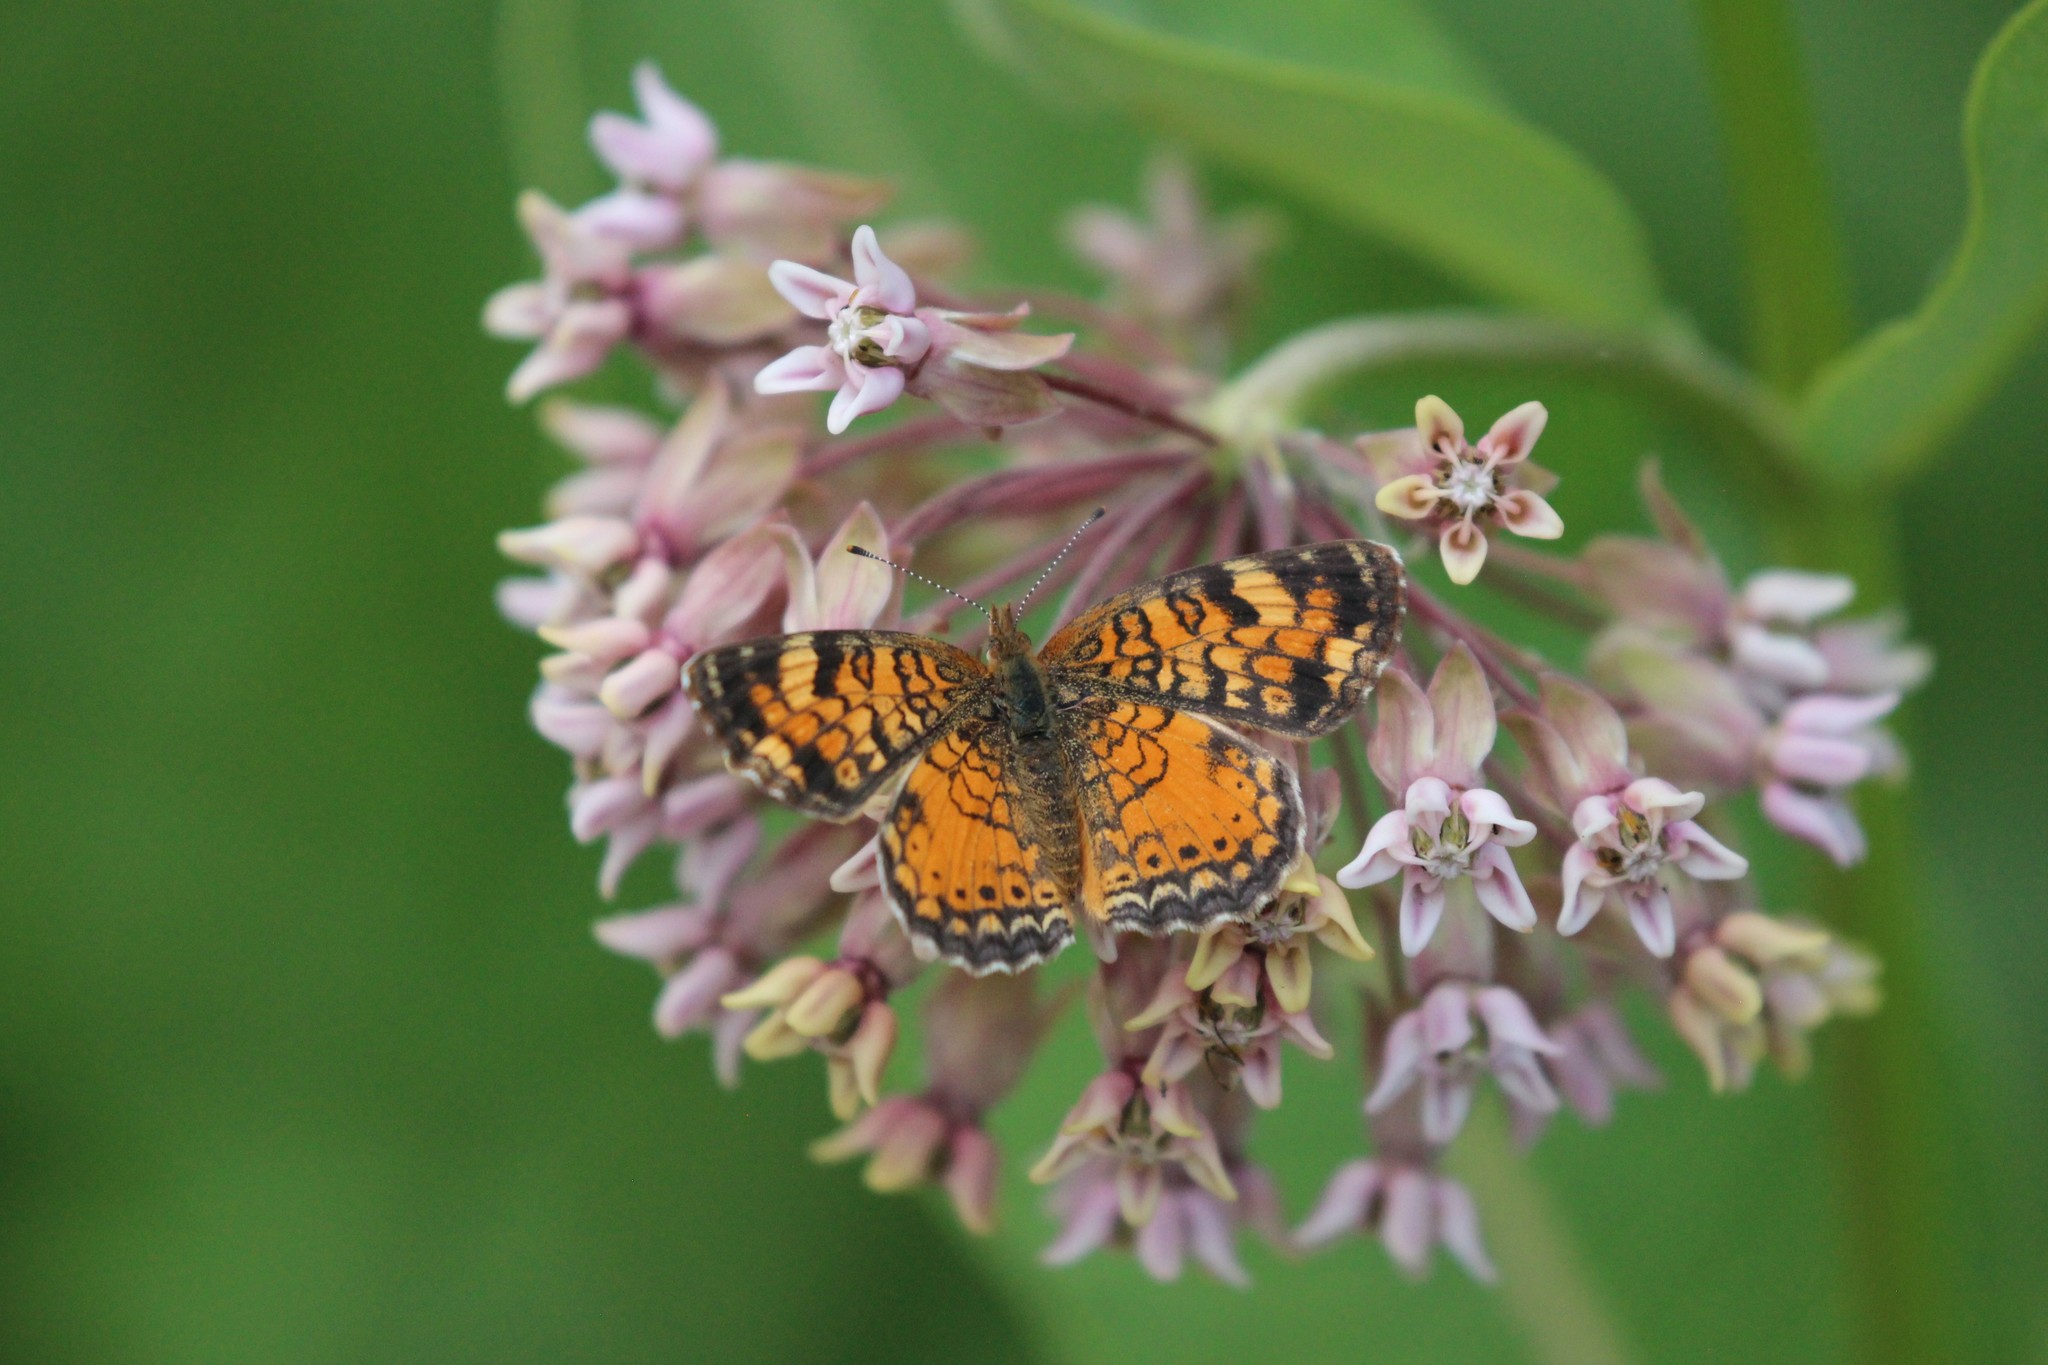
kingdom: Animalia
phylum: Arthropoda
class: Insecta
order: Lepidoptera
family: Nymphalidae
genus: Phyciodes
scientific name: Phyciodes tharos
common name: Pearl crescent
